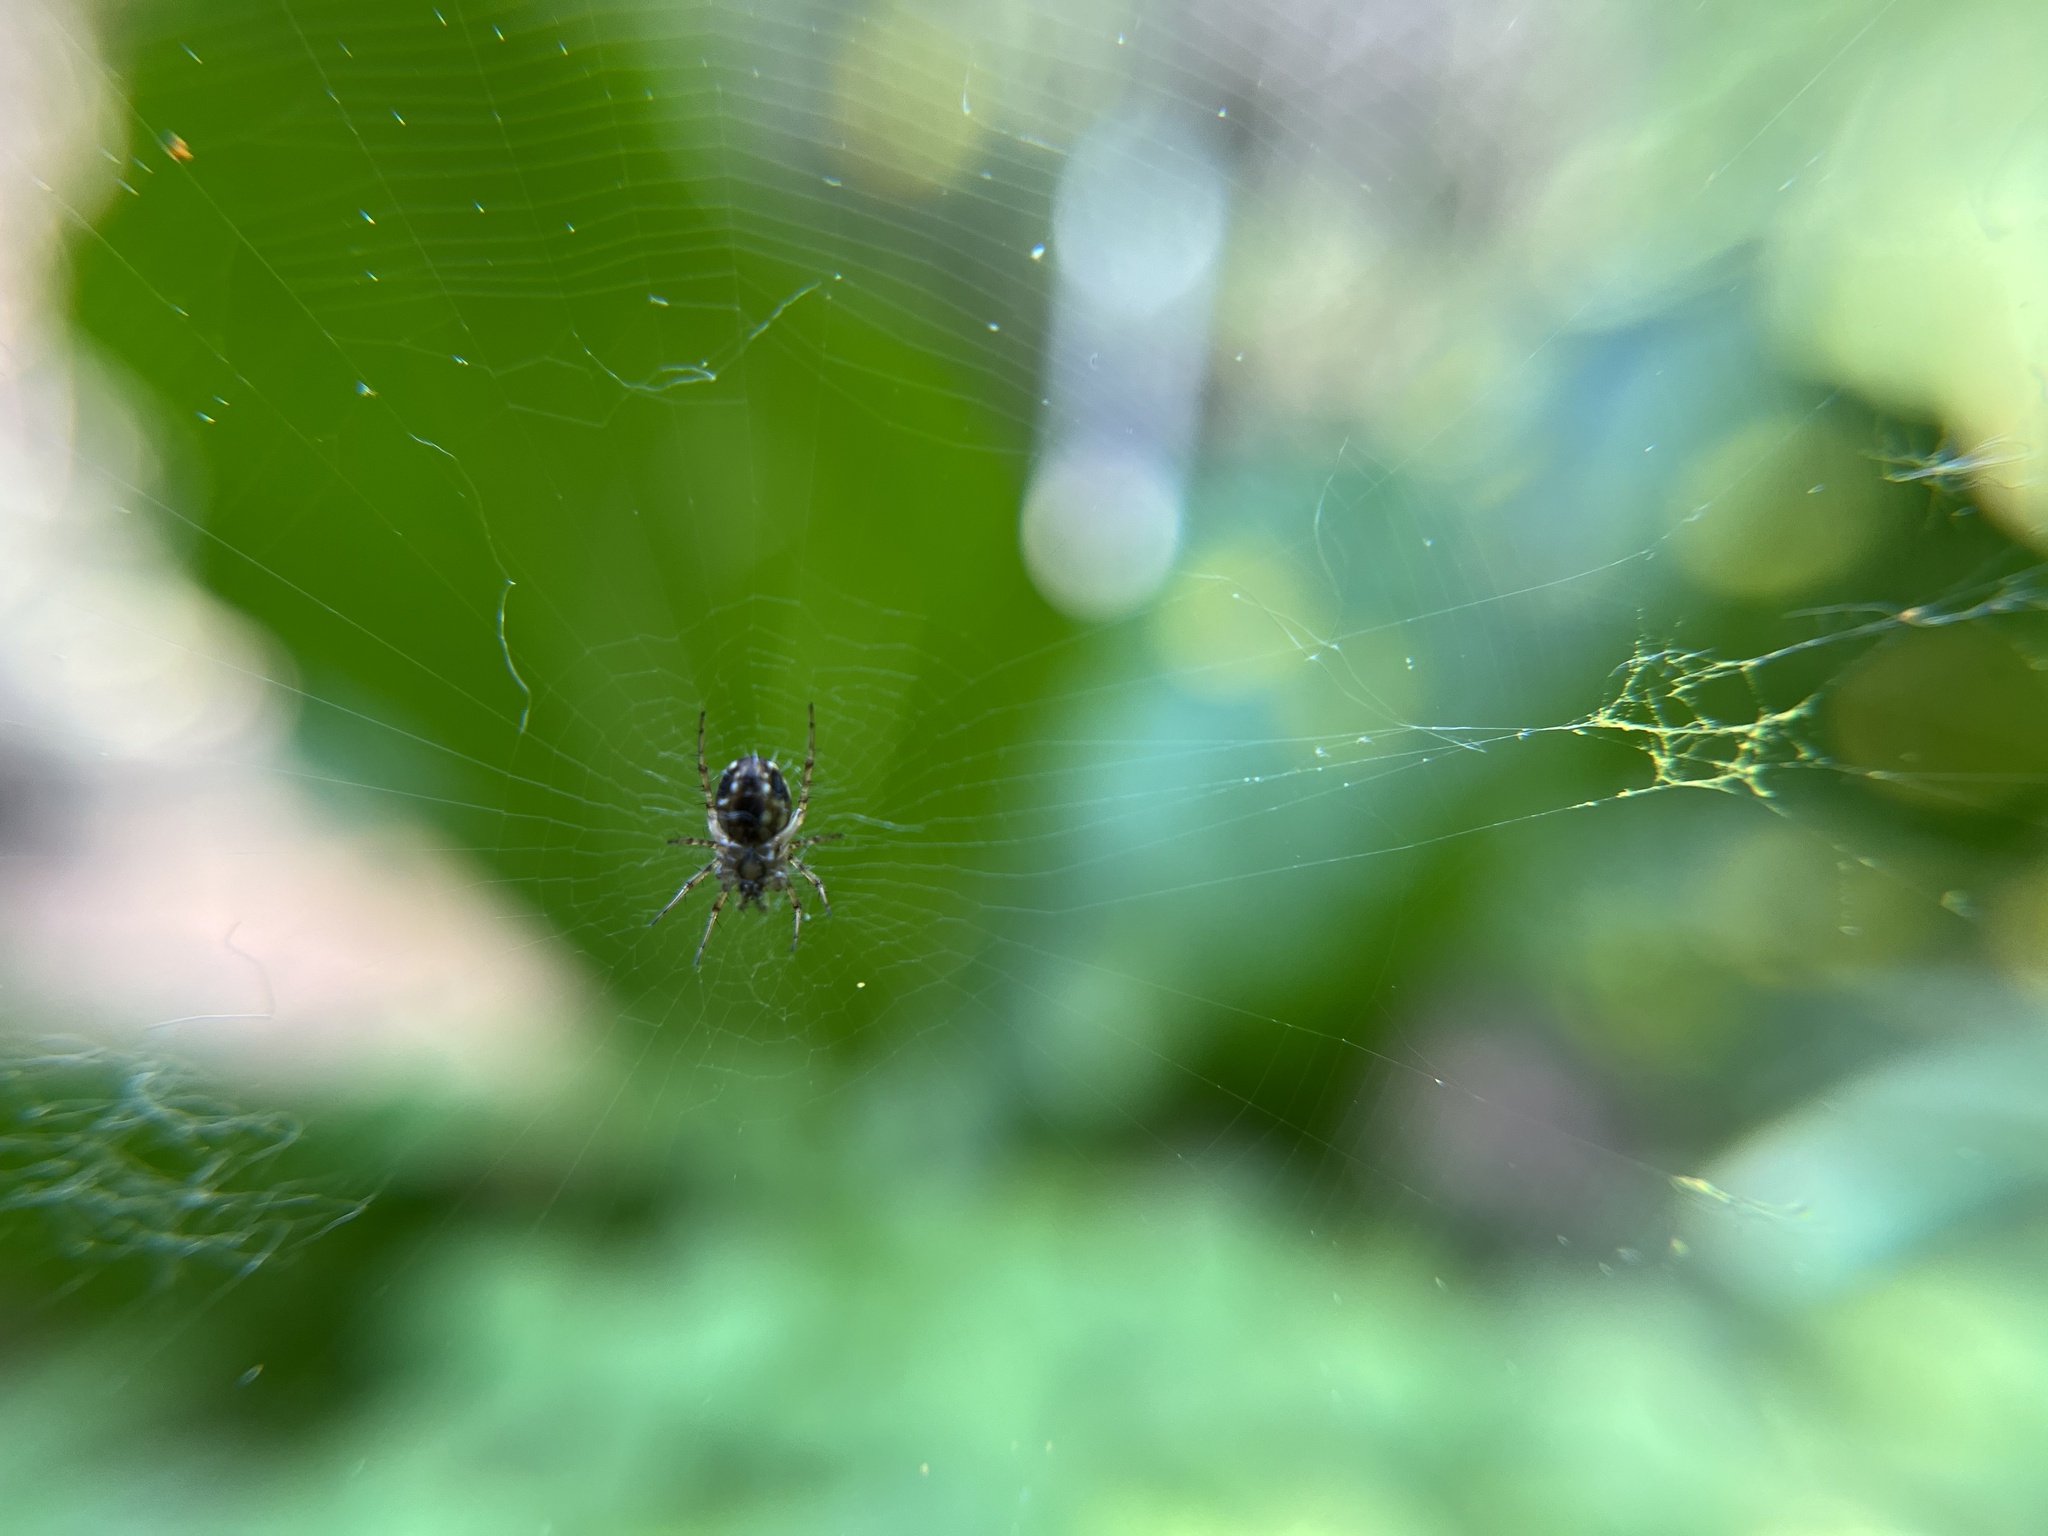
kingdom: Animalia
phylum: Arthropoda
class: Arachnida
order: Araneae
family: Araneidae
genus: Mangora
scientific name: Mangora placida
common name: Tuft-legged orbweaver
